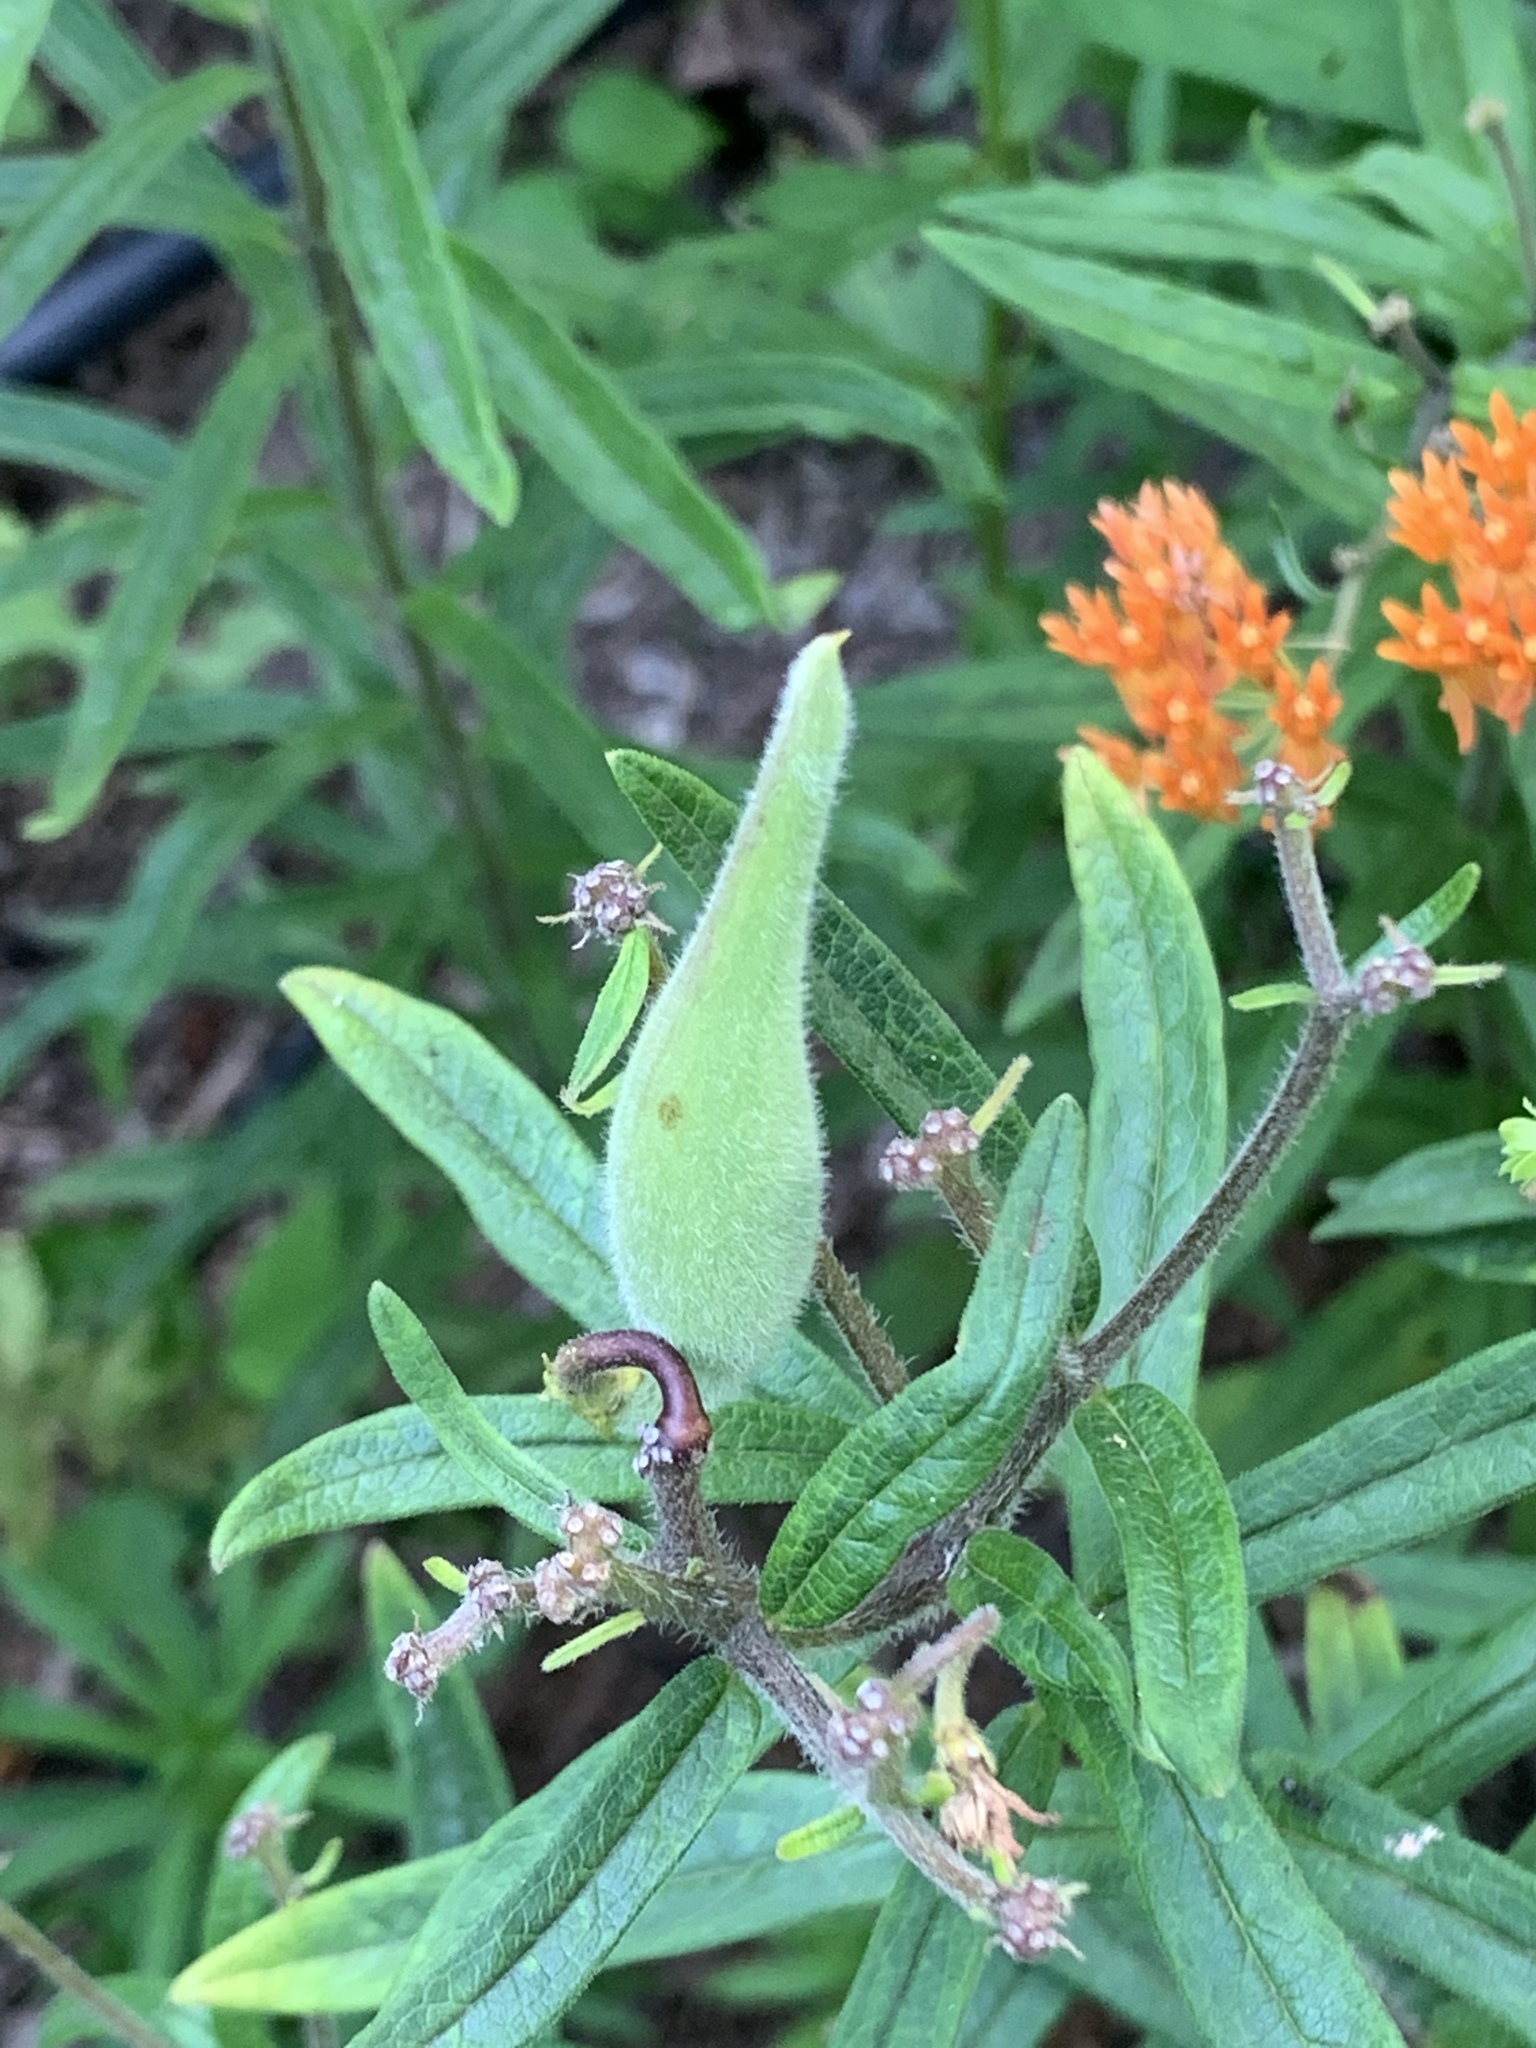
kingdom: Plantae
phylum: Tracheophyta
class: Magnoliopsida
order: Gentianales
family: Apocynaceae
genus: Asclepias
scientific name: Asclepias tuberosa
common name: Butterfly milkweed
